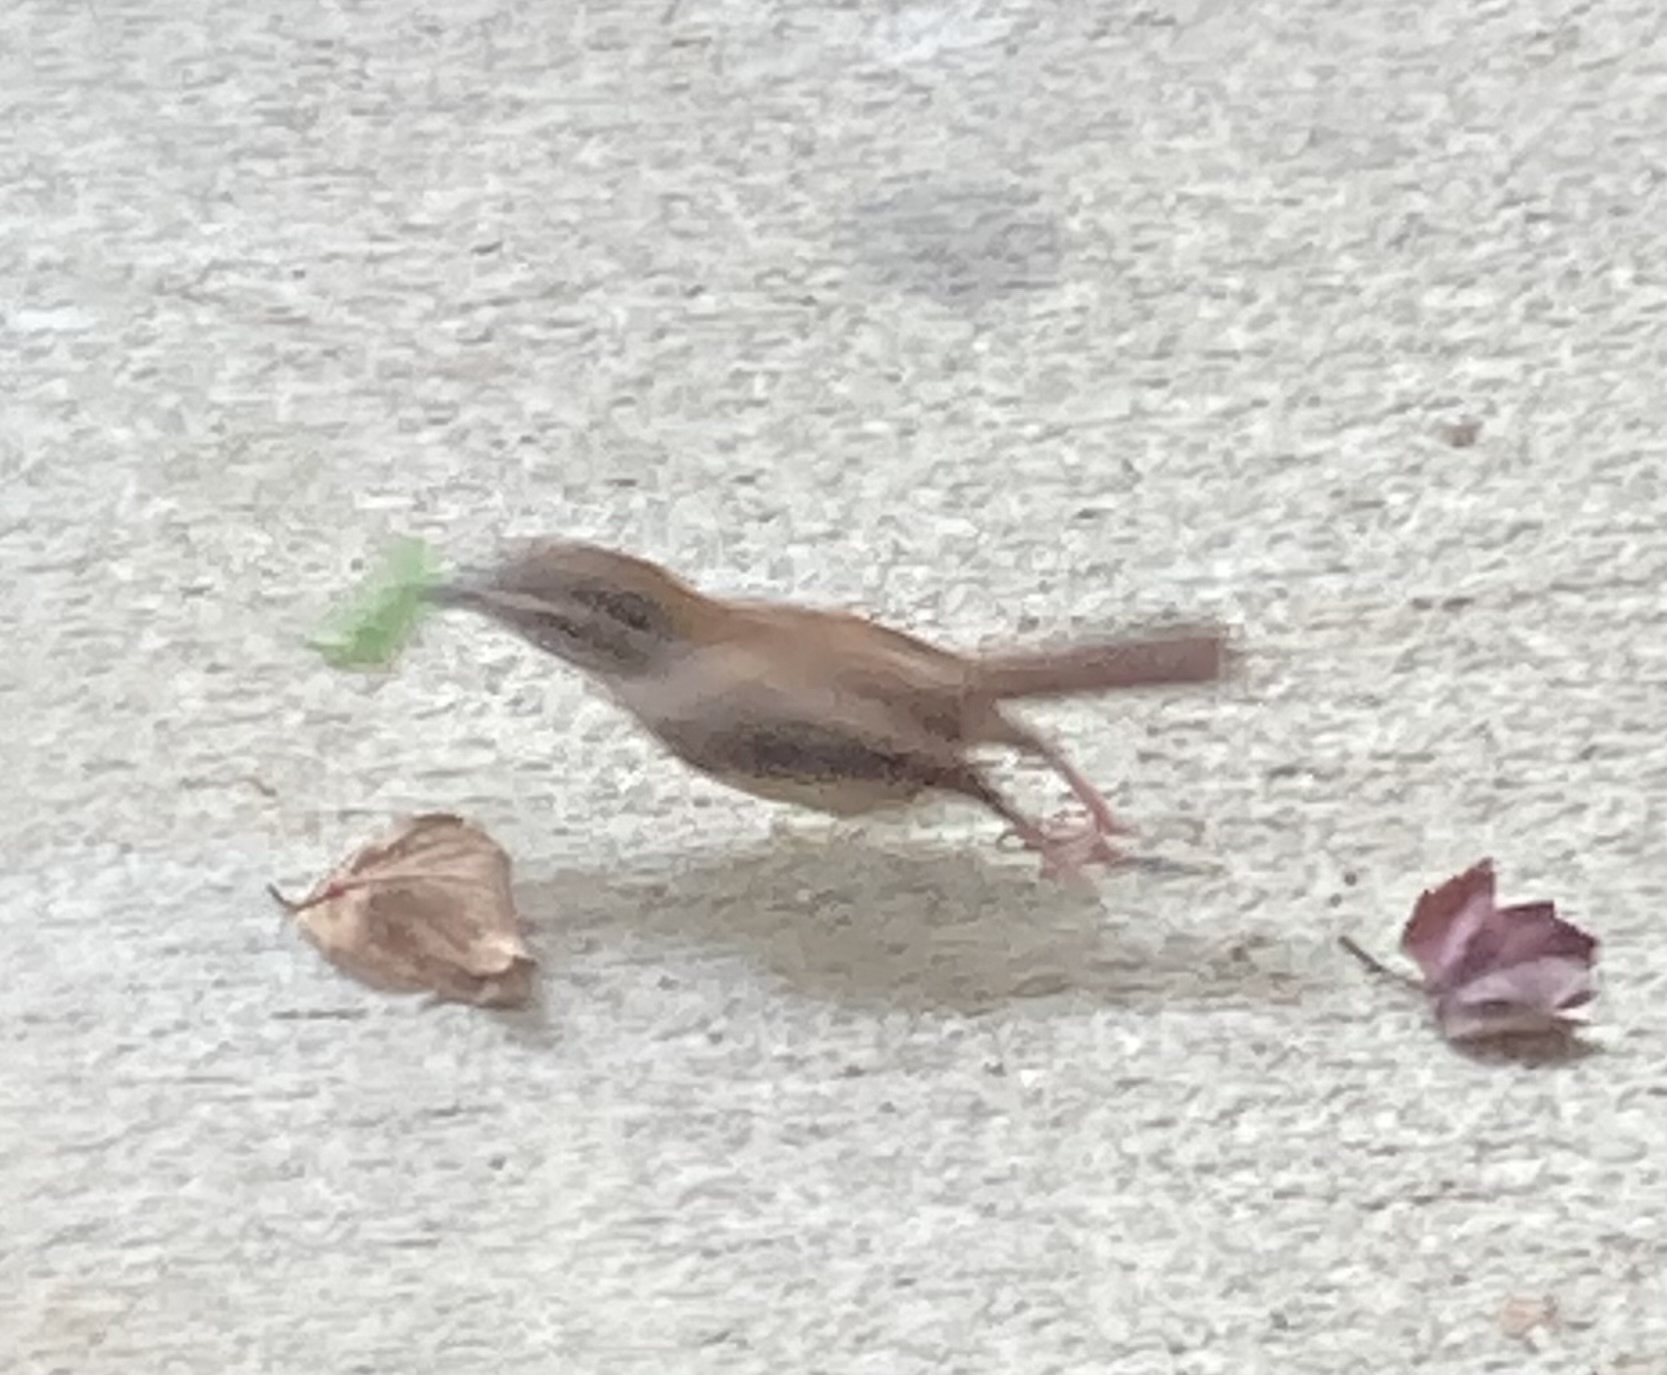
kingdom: Animalia
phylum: Chordata
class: Aves
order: Passeriformes
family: Troglodytidae
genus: Thryothorus
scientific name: Thryothorus ludovicianus
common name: Carolina wren
